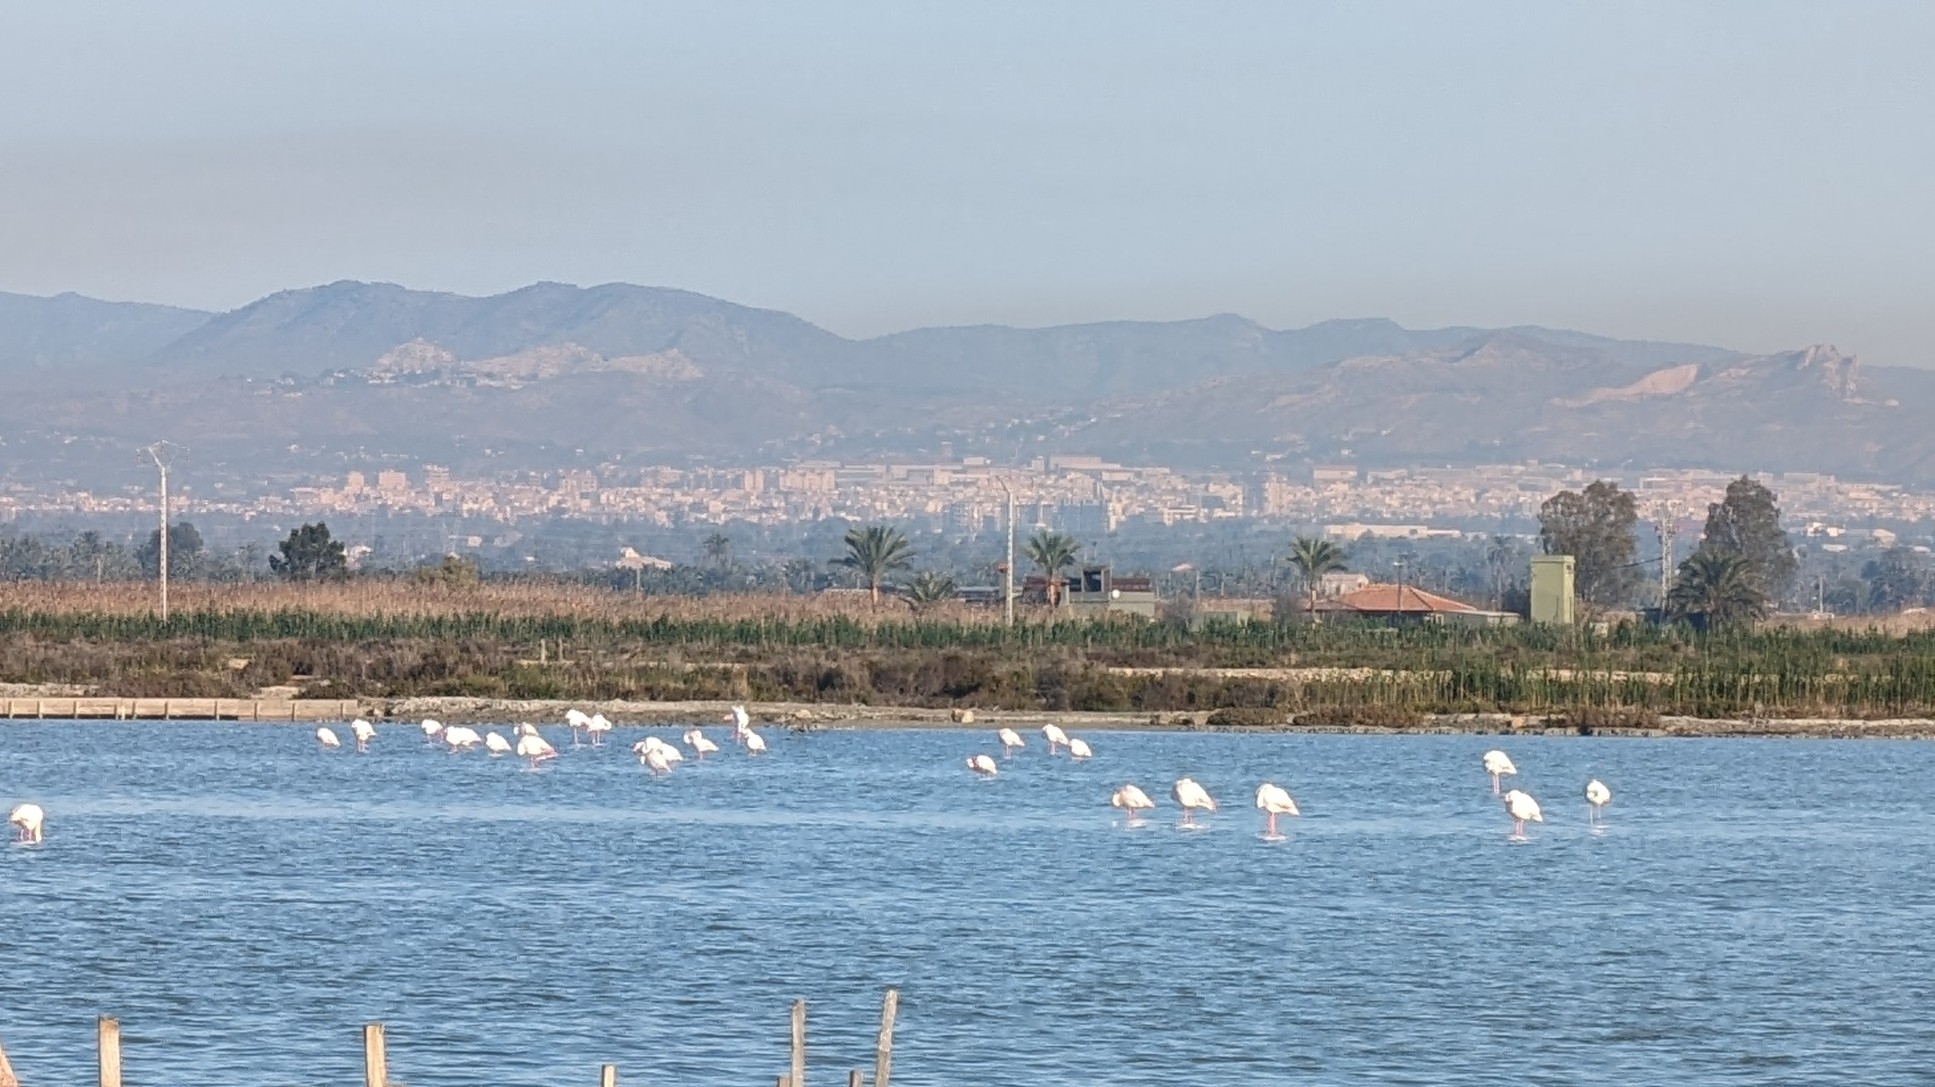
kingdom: Animalia
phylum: Chordata
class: Aves
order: Phoenicopteriformes
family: Phoenicopteridae
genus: Phoenicopterus
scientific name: Phoenicopterus roseus
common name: Greater flamingo
